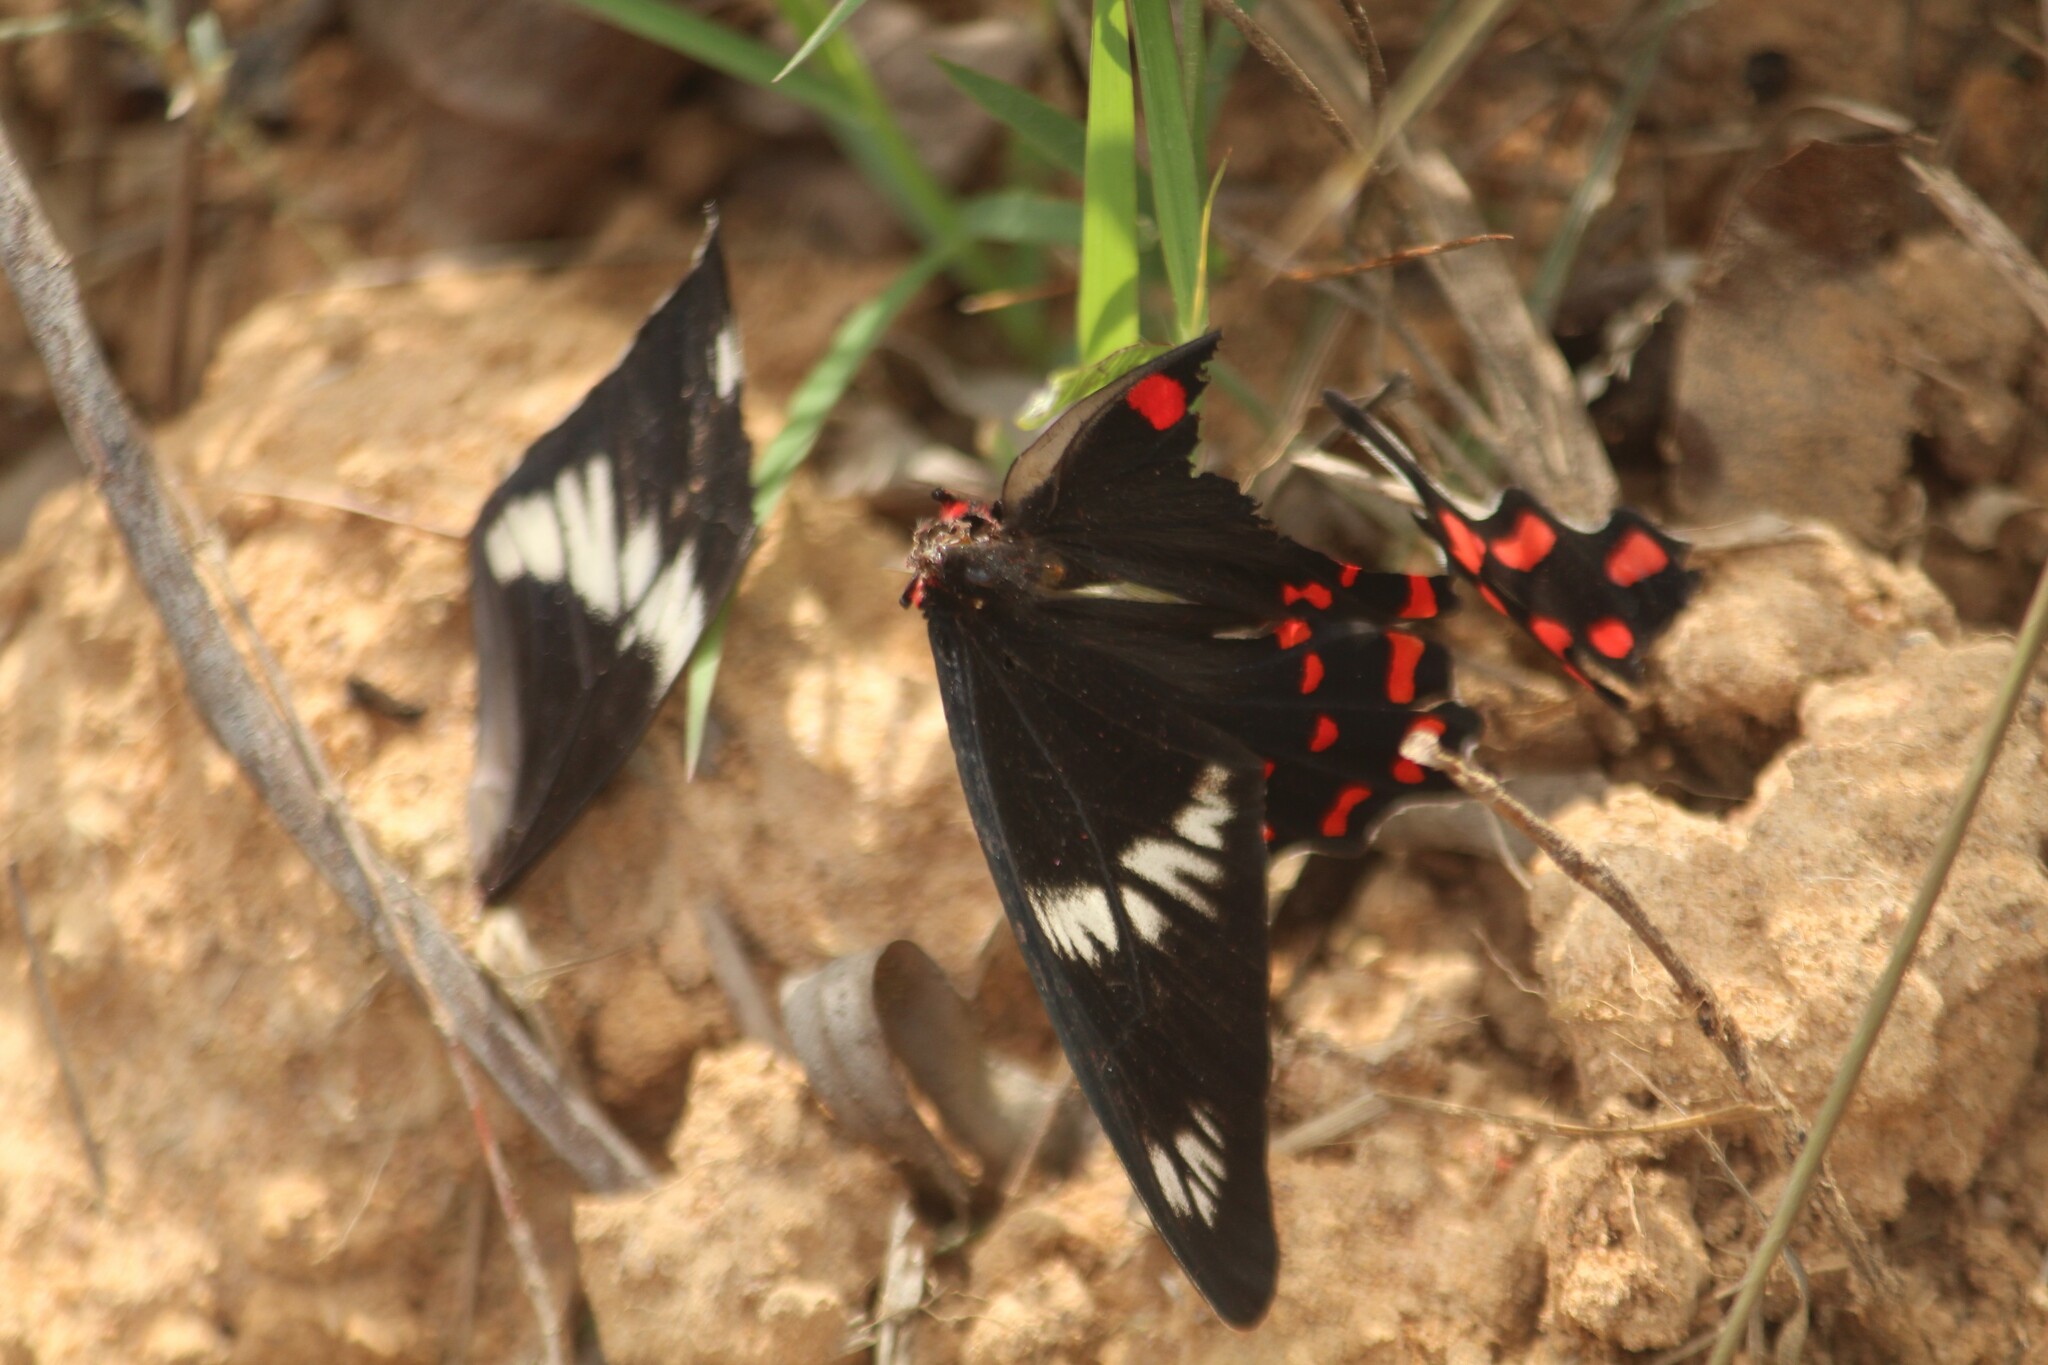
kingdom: Animalia
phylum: Arthropoda
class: Insecta
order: Lepidoptera
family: Papilionidae
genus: Pachliopta
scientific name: Pachliopta hector
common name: Crimson rose
